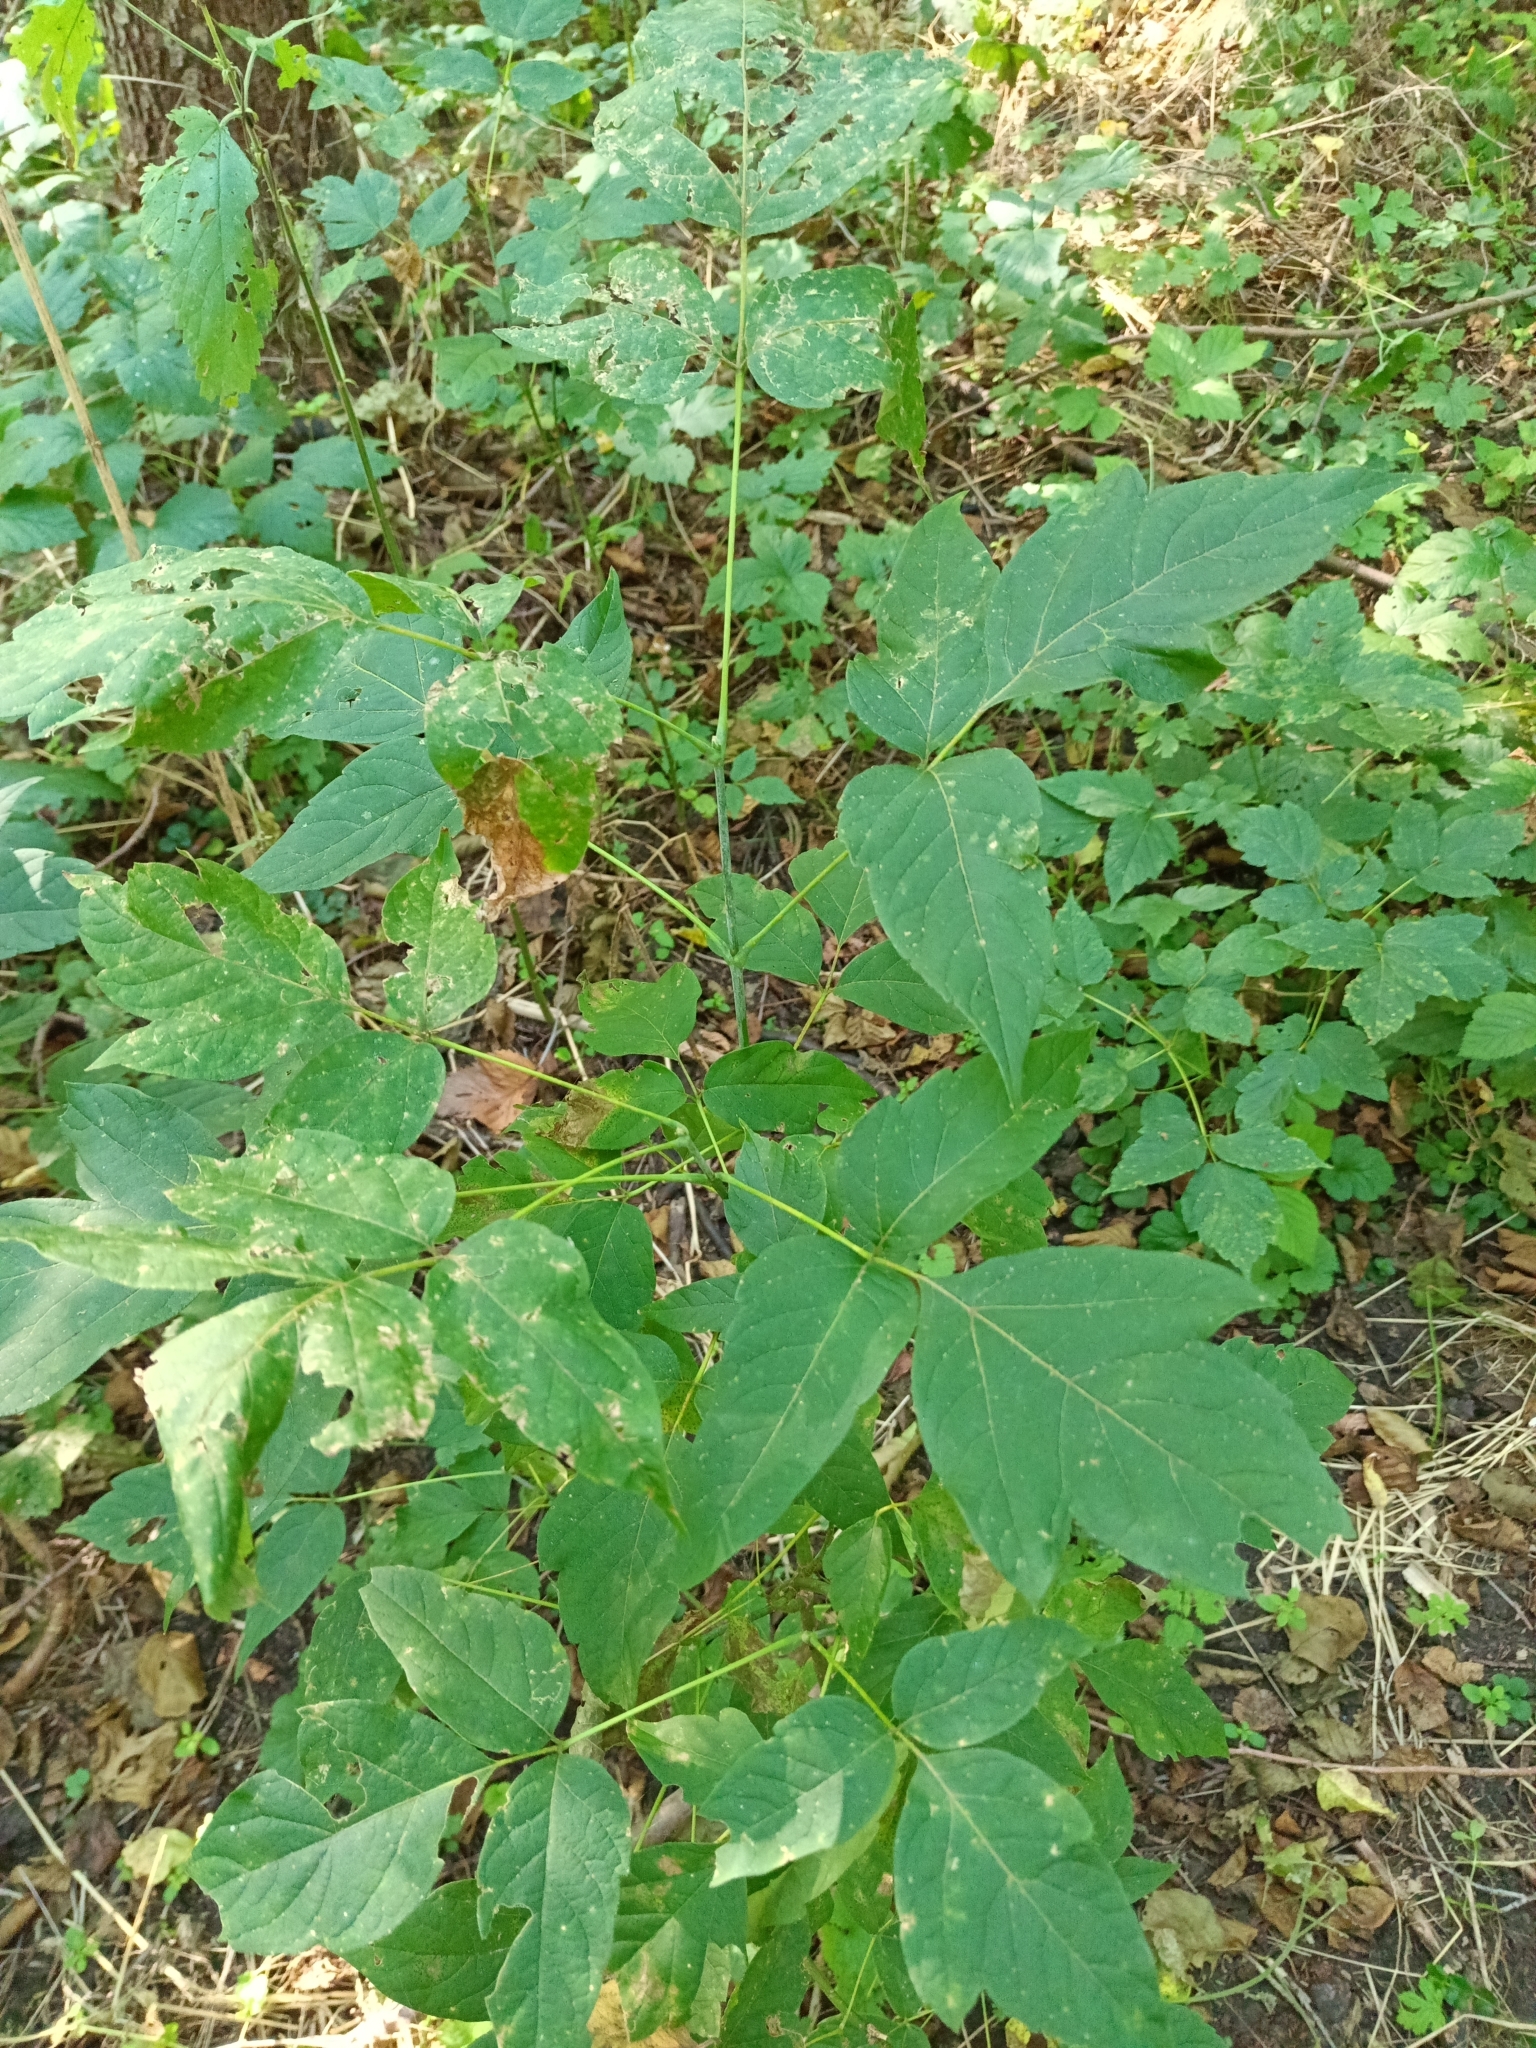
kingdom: Plantae
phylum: Tracheophyta
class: Magnoliopsida
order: Sapindales
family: Sapindaceae
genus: Acer
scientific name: Acer negundo
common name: Ashleaf maple
